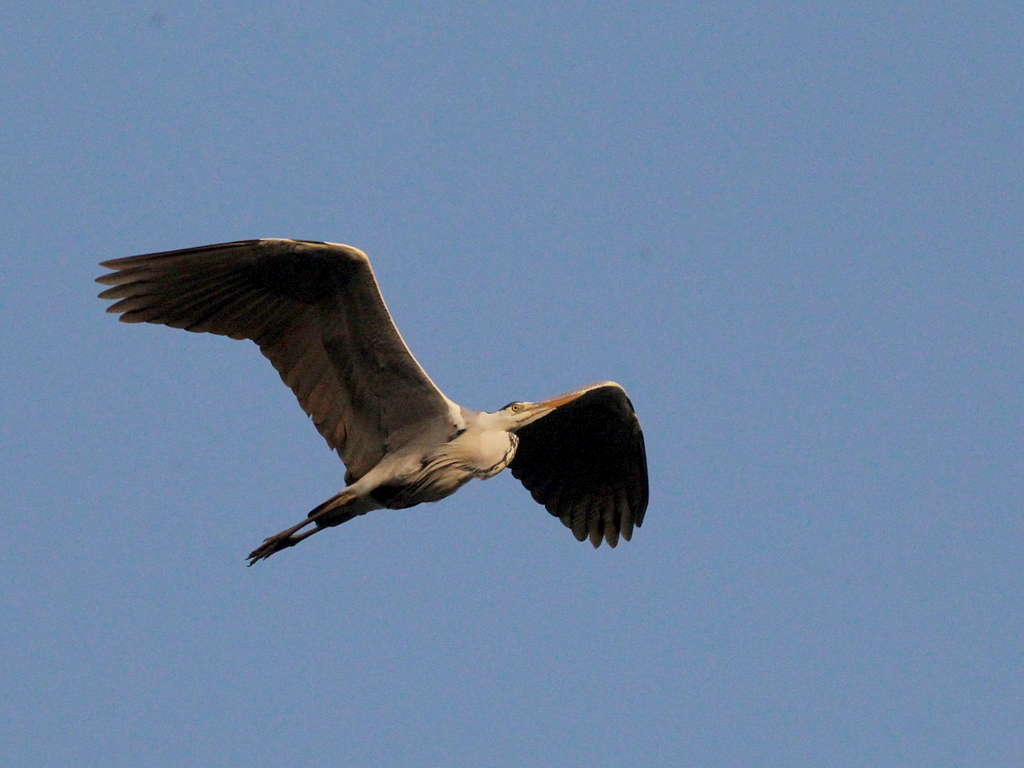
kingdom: Animalia
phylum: Chordata
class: Aves
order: Pelecaniformes
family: Ardeidae
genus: Ardea
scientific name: Ardea cinerea
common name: Grey heron
